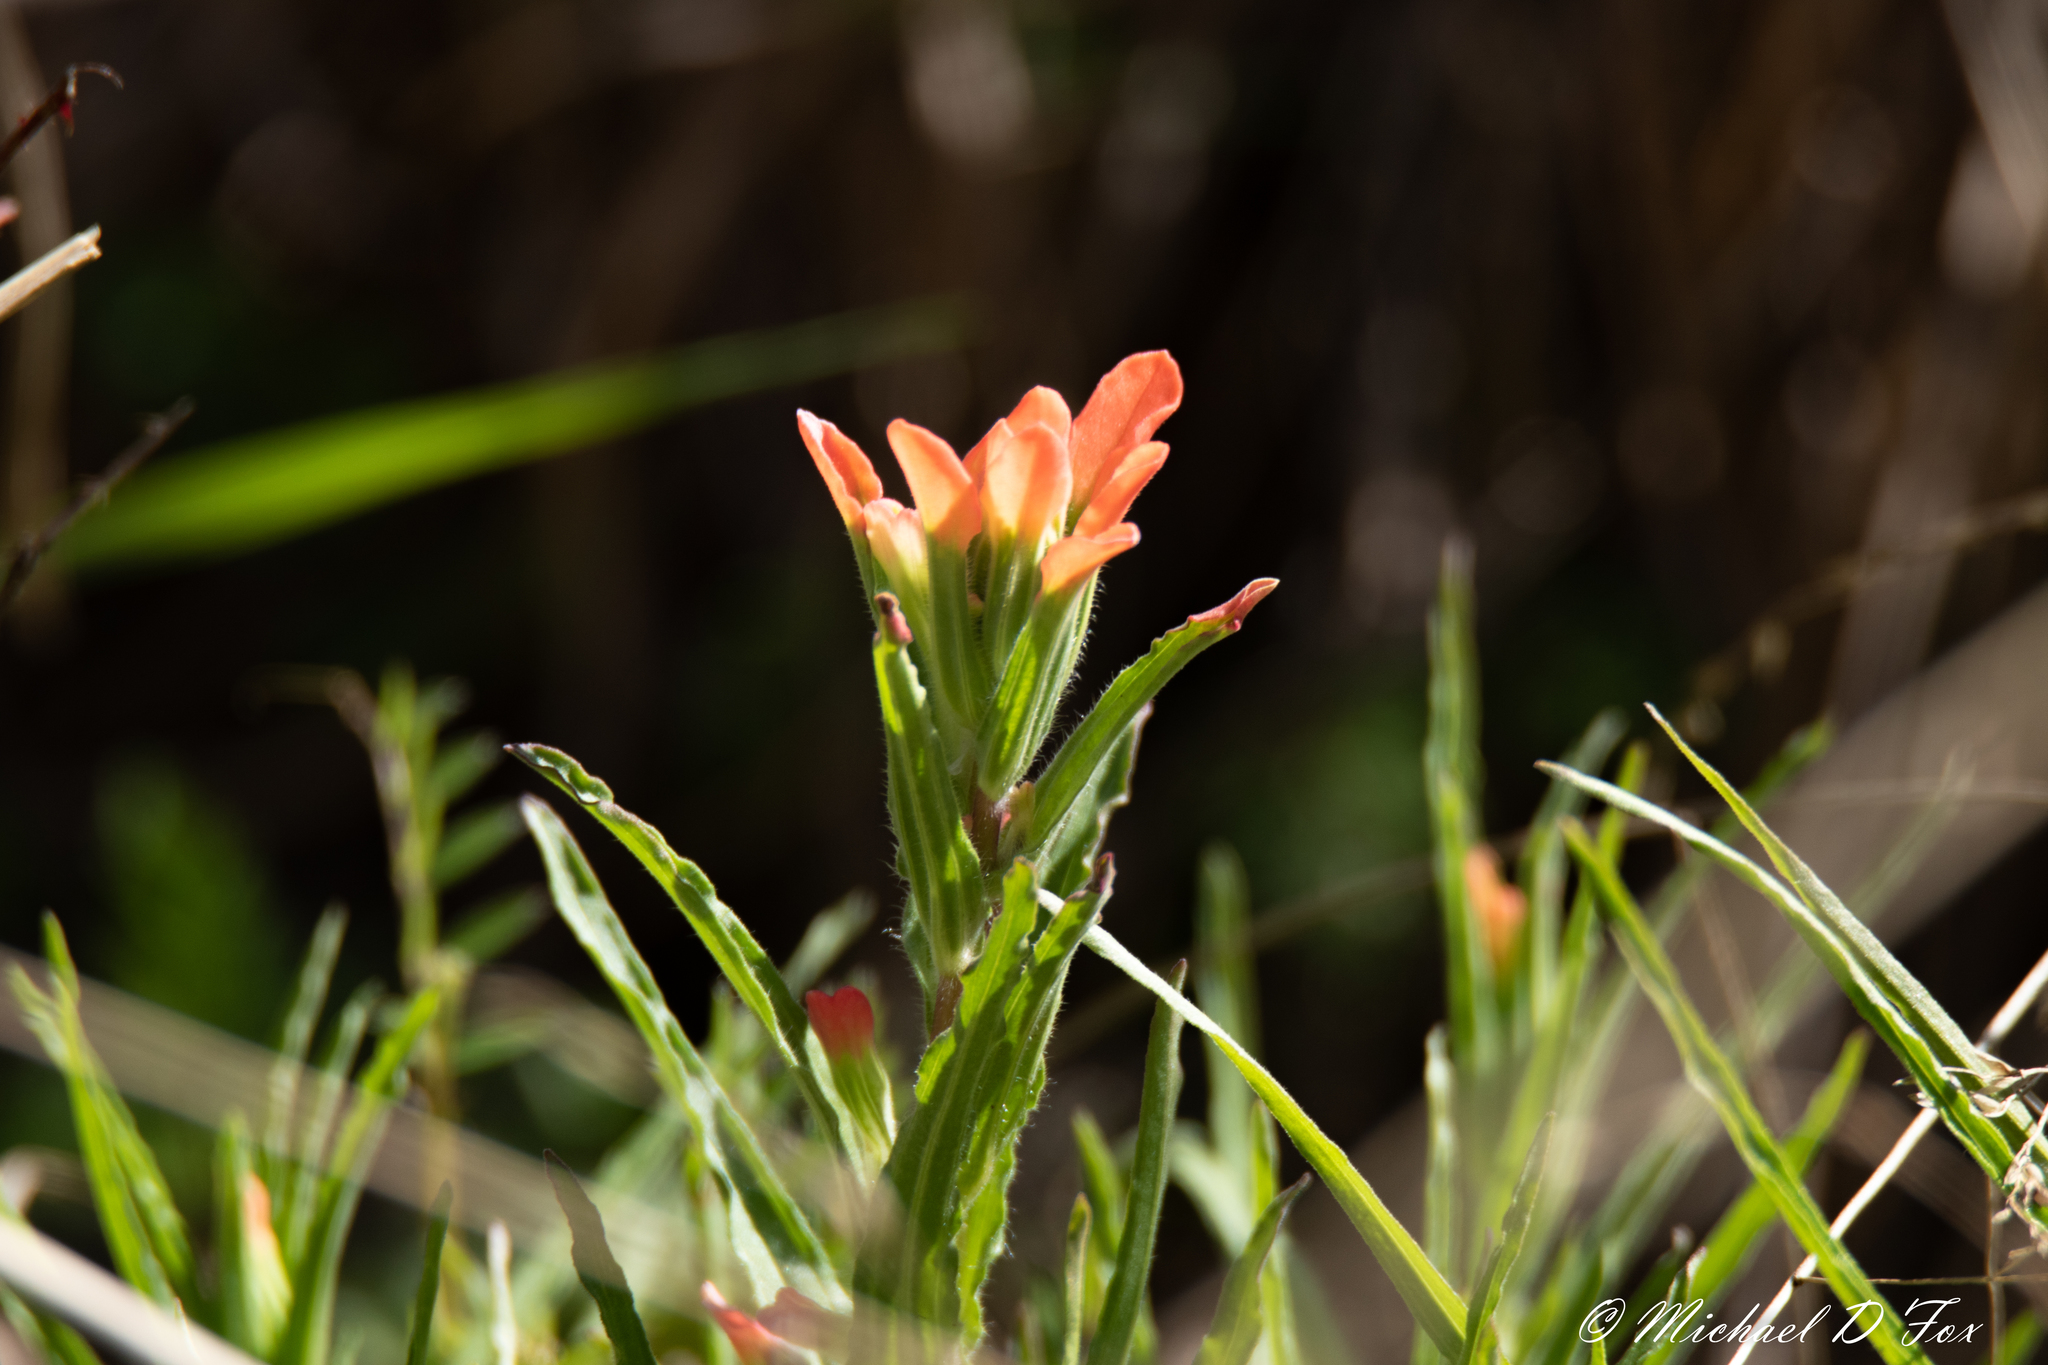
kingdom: Plantae
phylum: Tracheophyta
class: Magnoliopsida
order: Lamiales
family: Orobanchaceae
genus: Castilleja
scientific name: Castilleja indivisa
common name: Texas paintbrush
